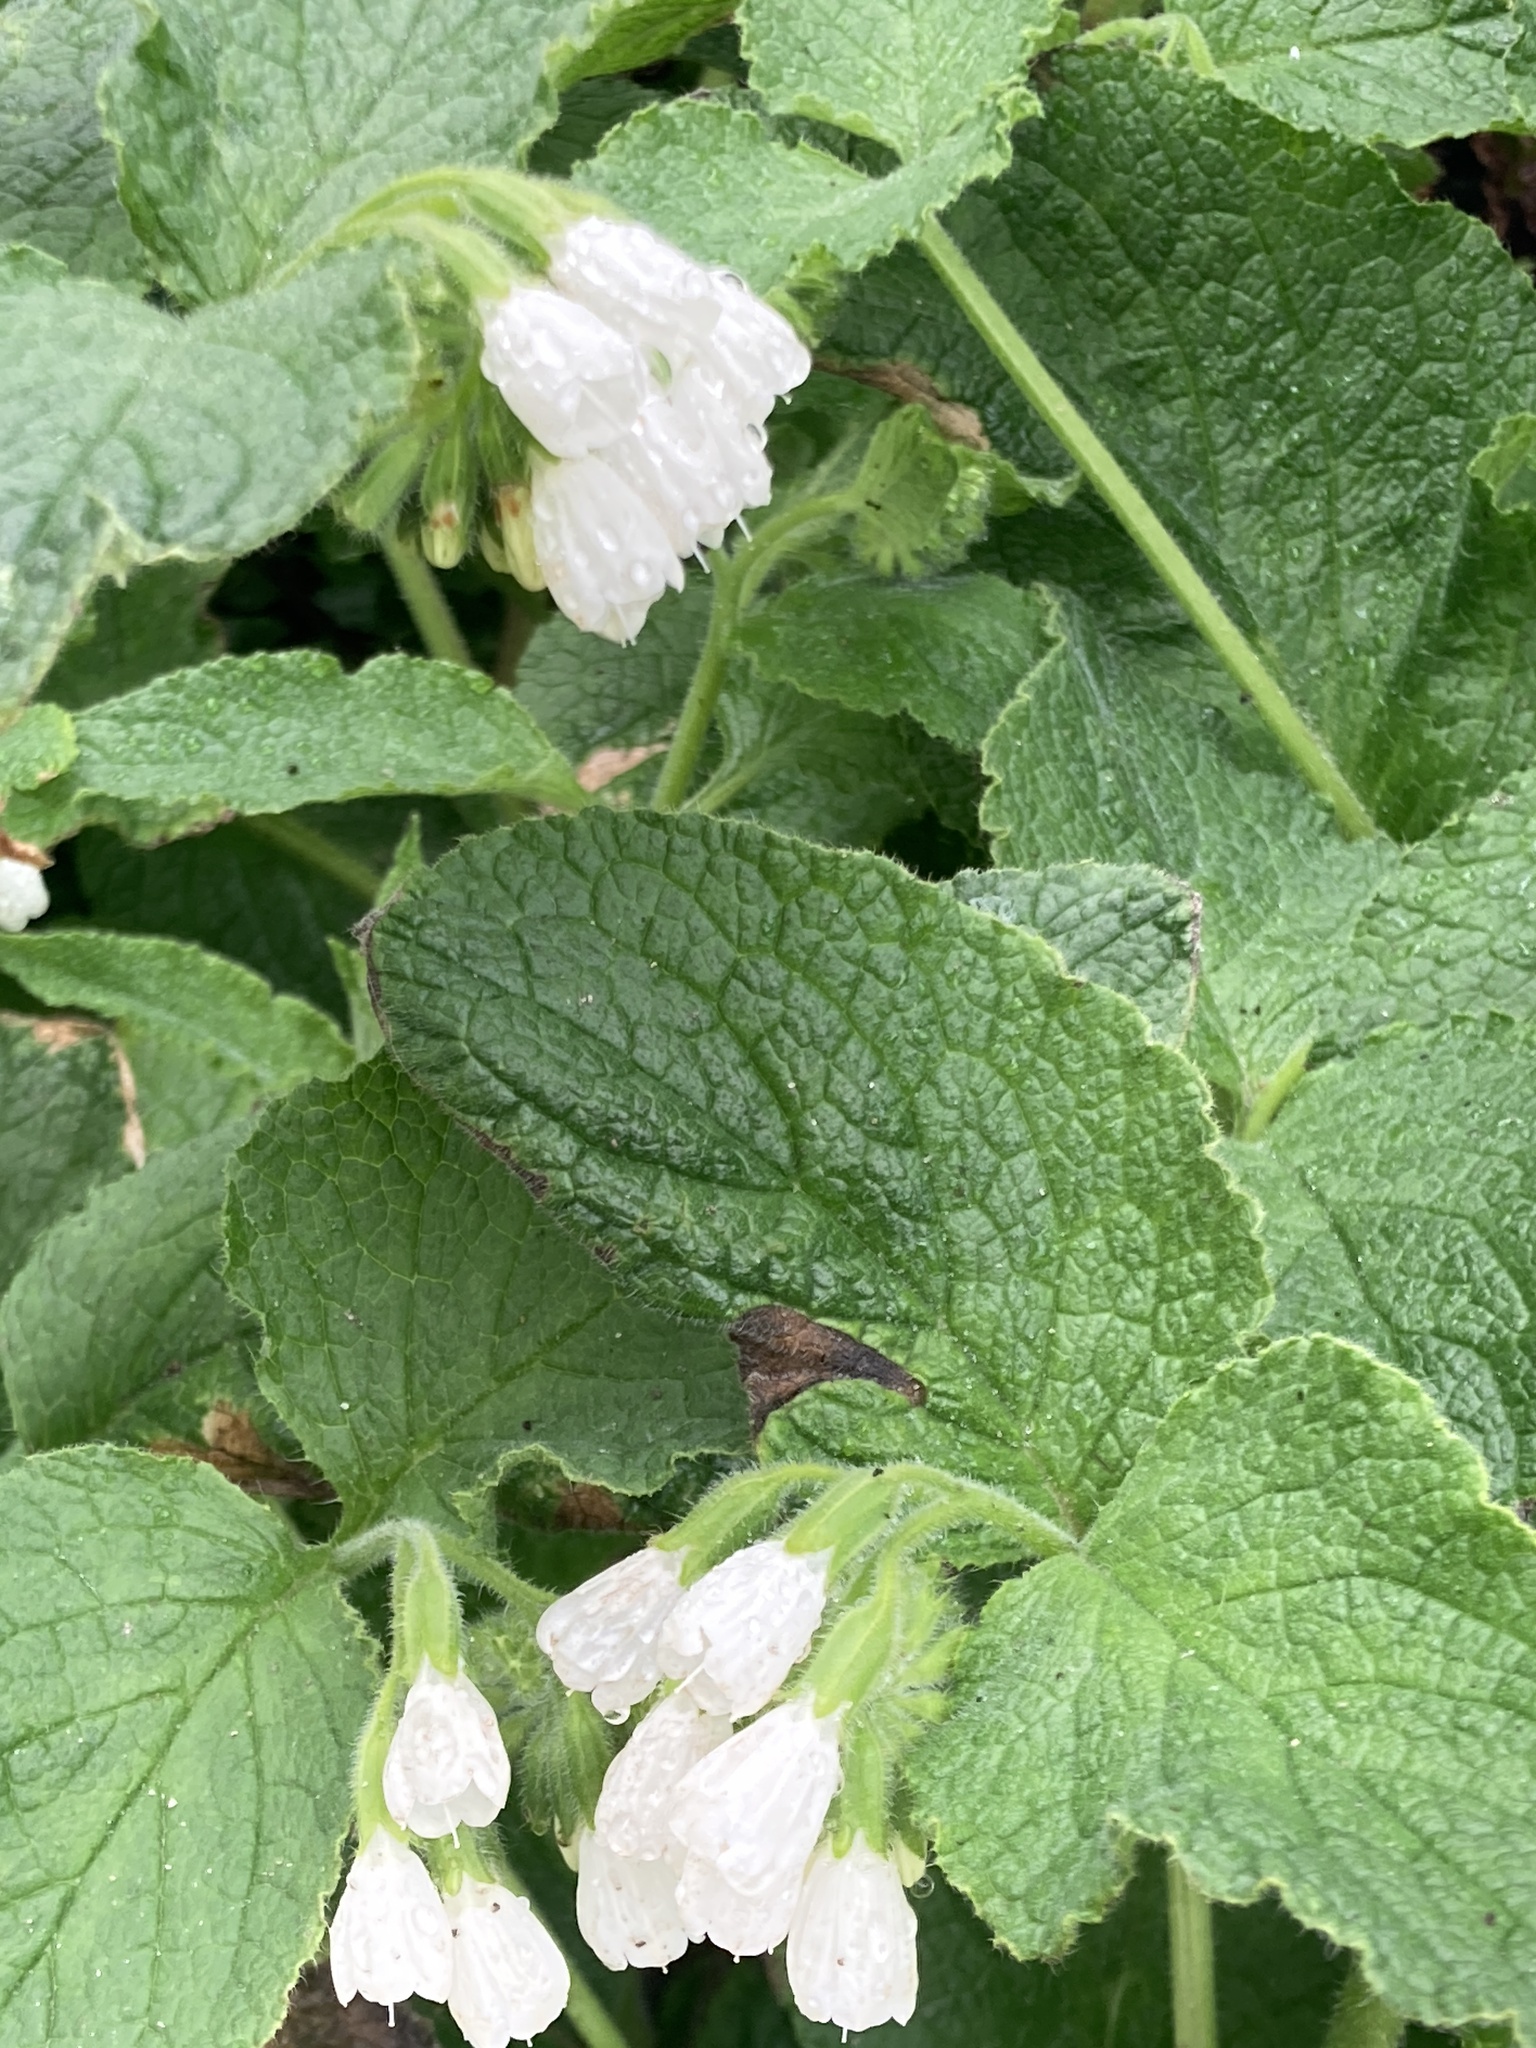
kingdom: Plantae
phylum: Tracheophyta
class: Magnoliopsida
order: Boraginales
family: Boraginaceae
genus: Symphytum
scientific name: Symphytum orientale
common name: White comfrey
